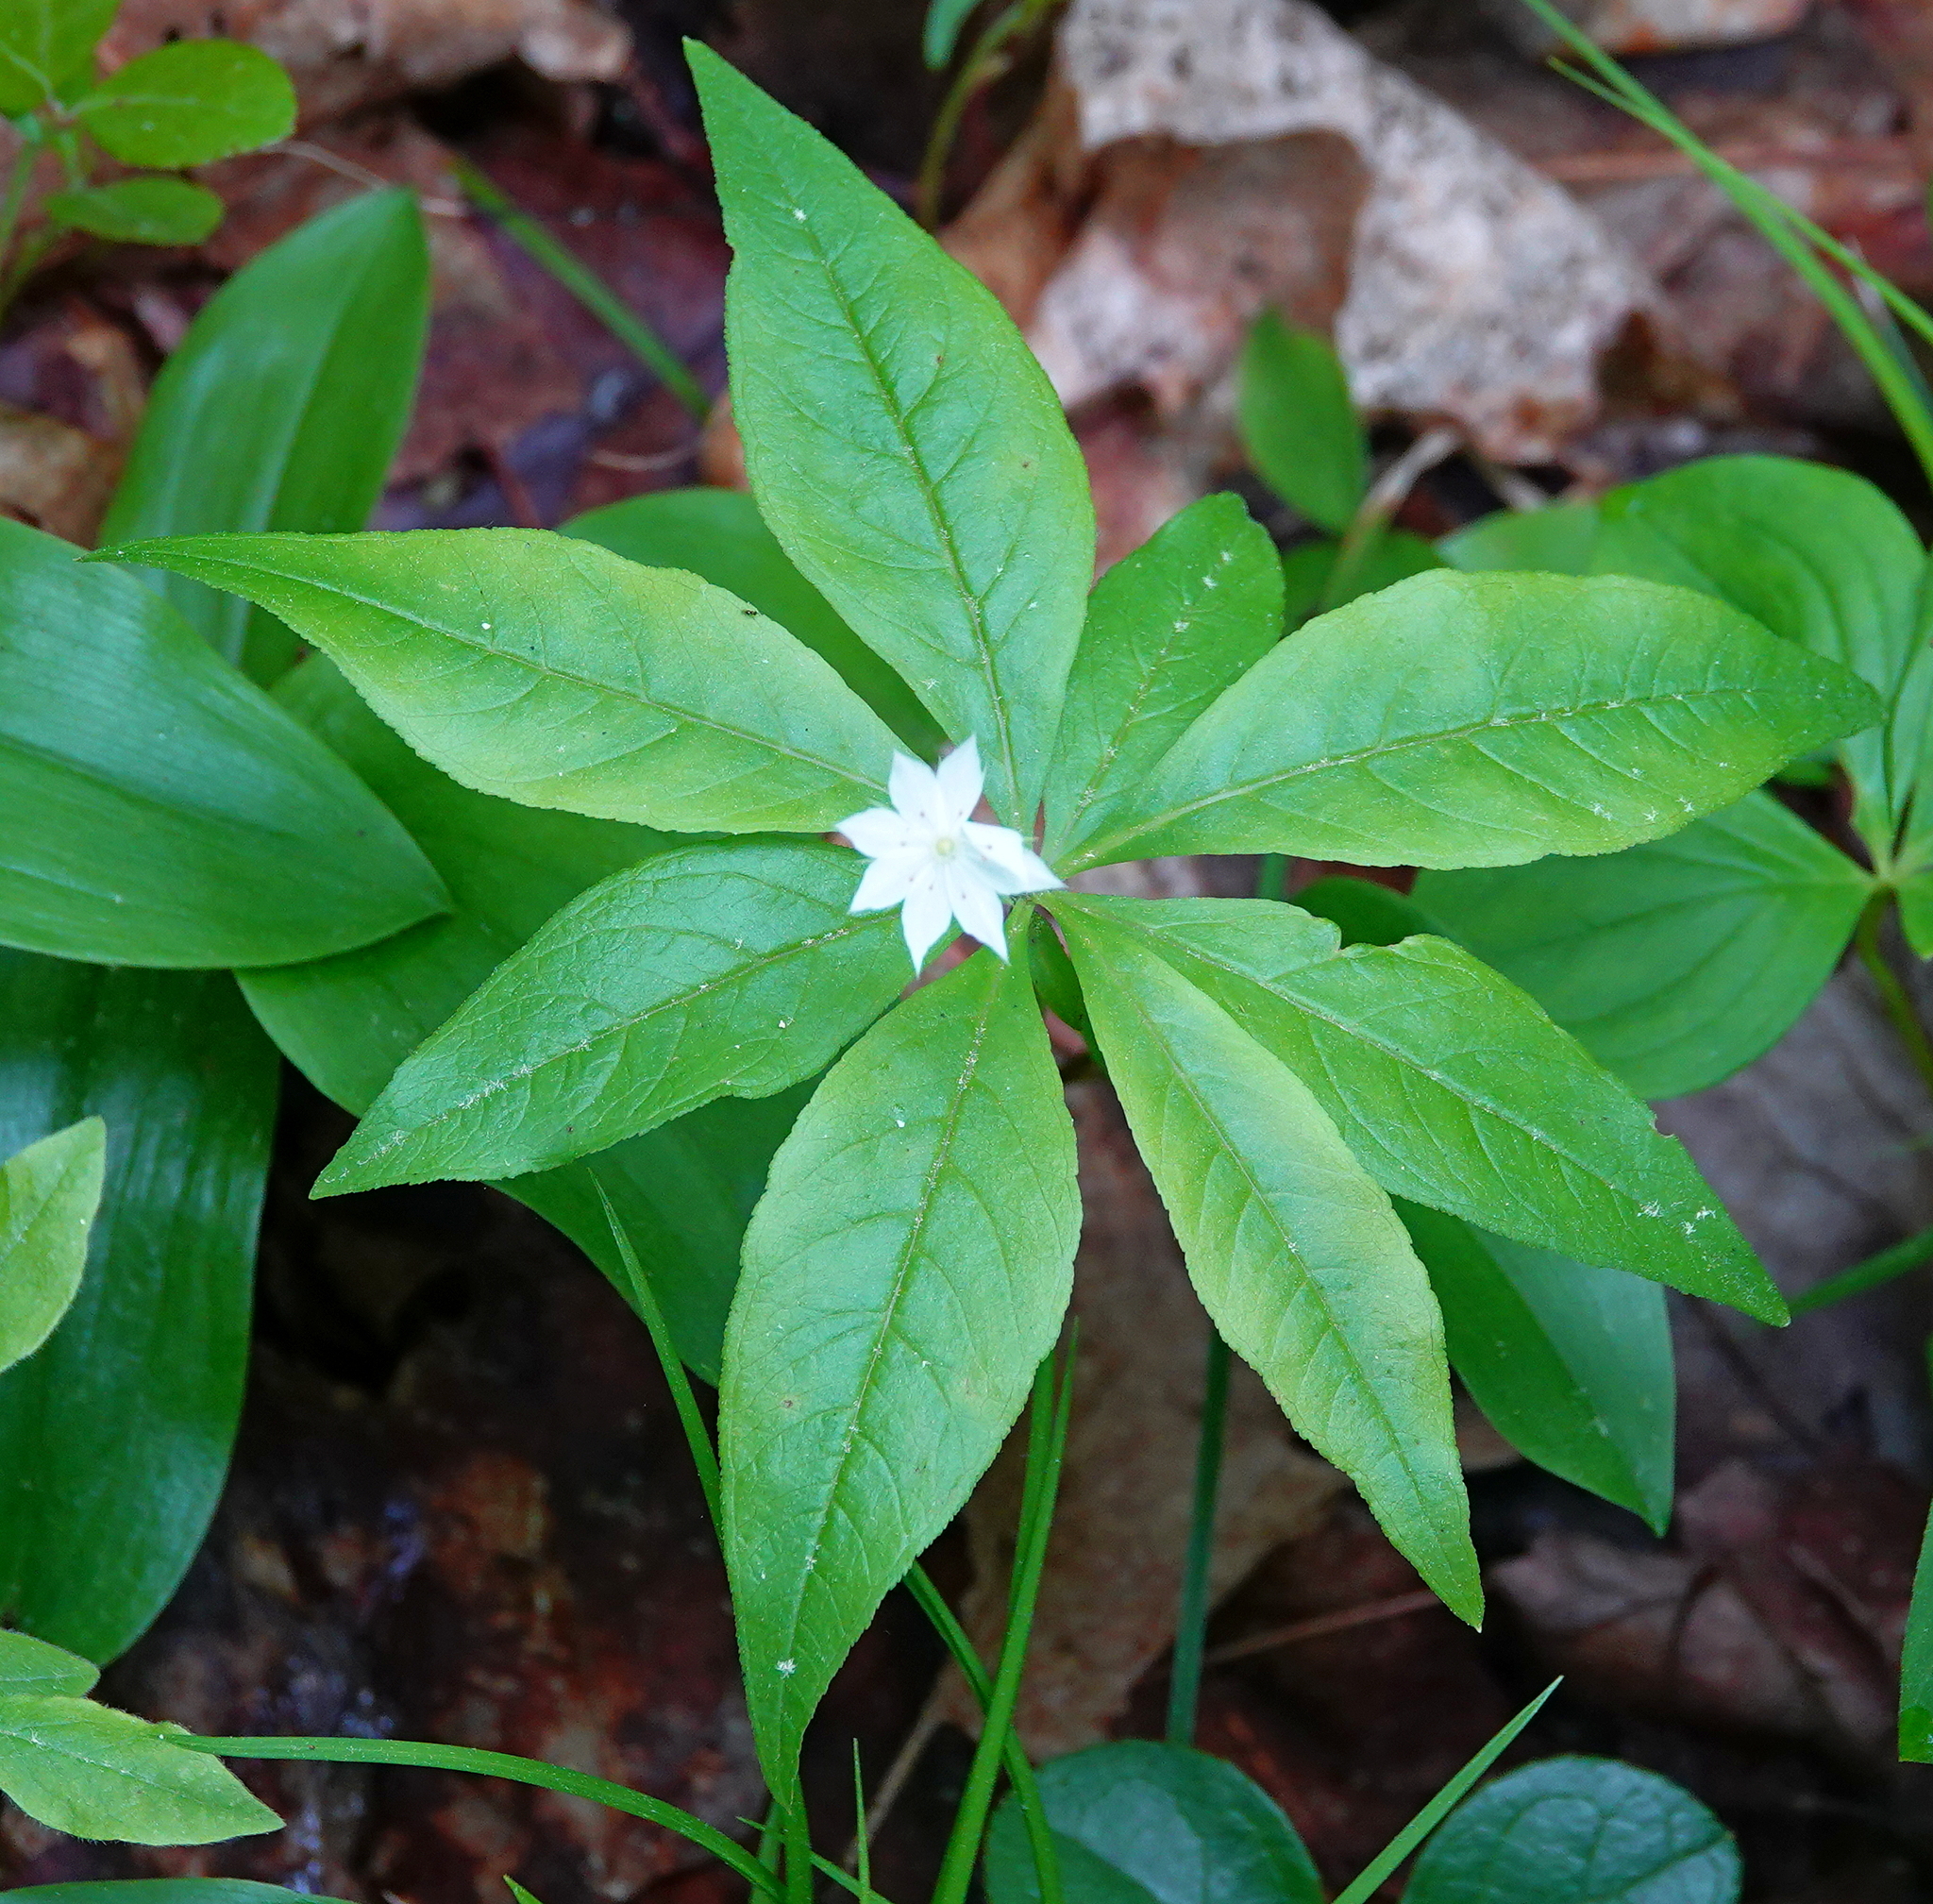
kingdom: Plantae
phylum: Tracheophyta
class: Magnoliopsida
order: Ericales
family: Primulaceae
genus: Lysimachia
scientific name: Lysimachia borealis
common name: American starflower
